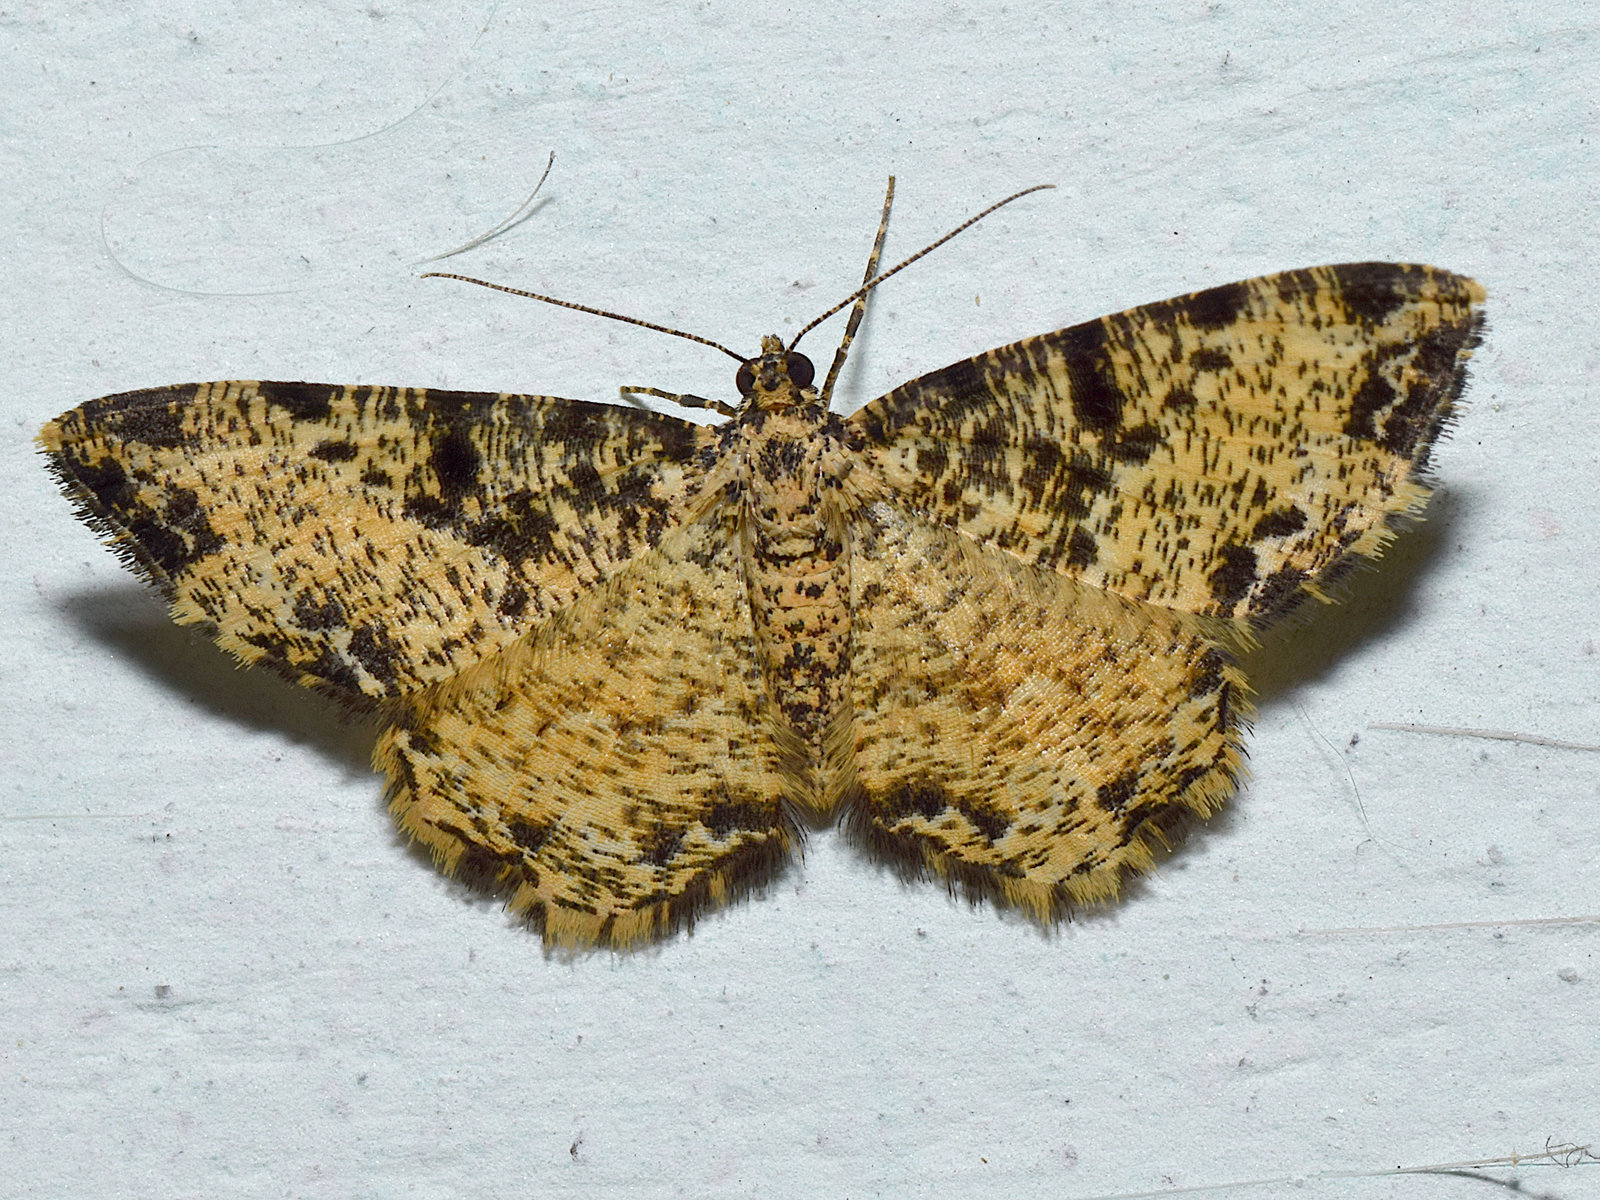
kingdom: Animalia
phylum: Arthropoda
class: Insecta
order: Lepidoptera
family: Geometridae
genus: Monocerotesa
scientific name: Monocerotesa strigata
